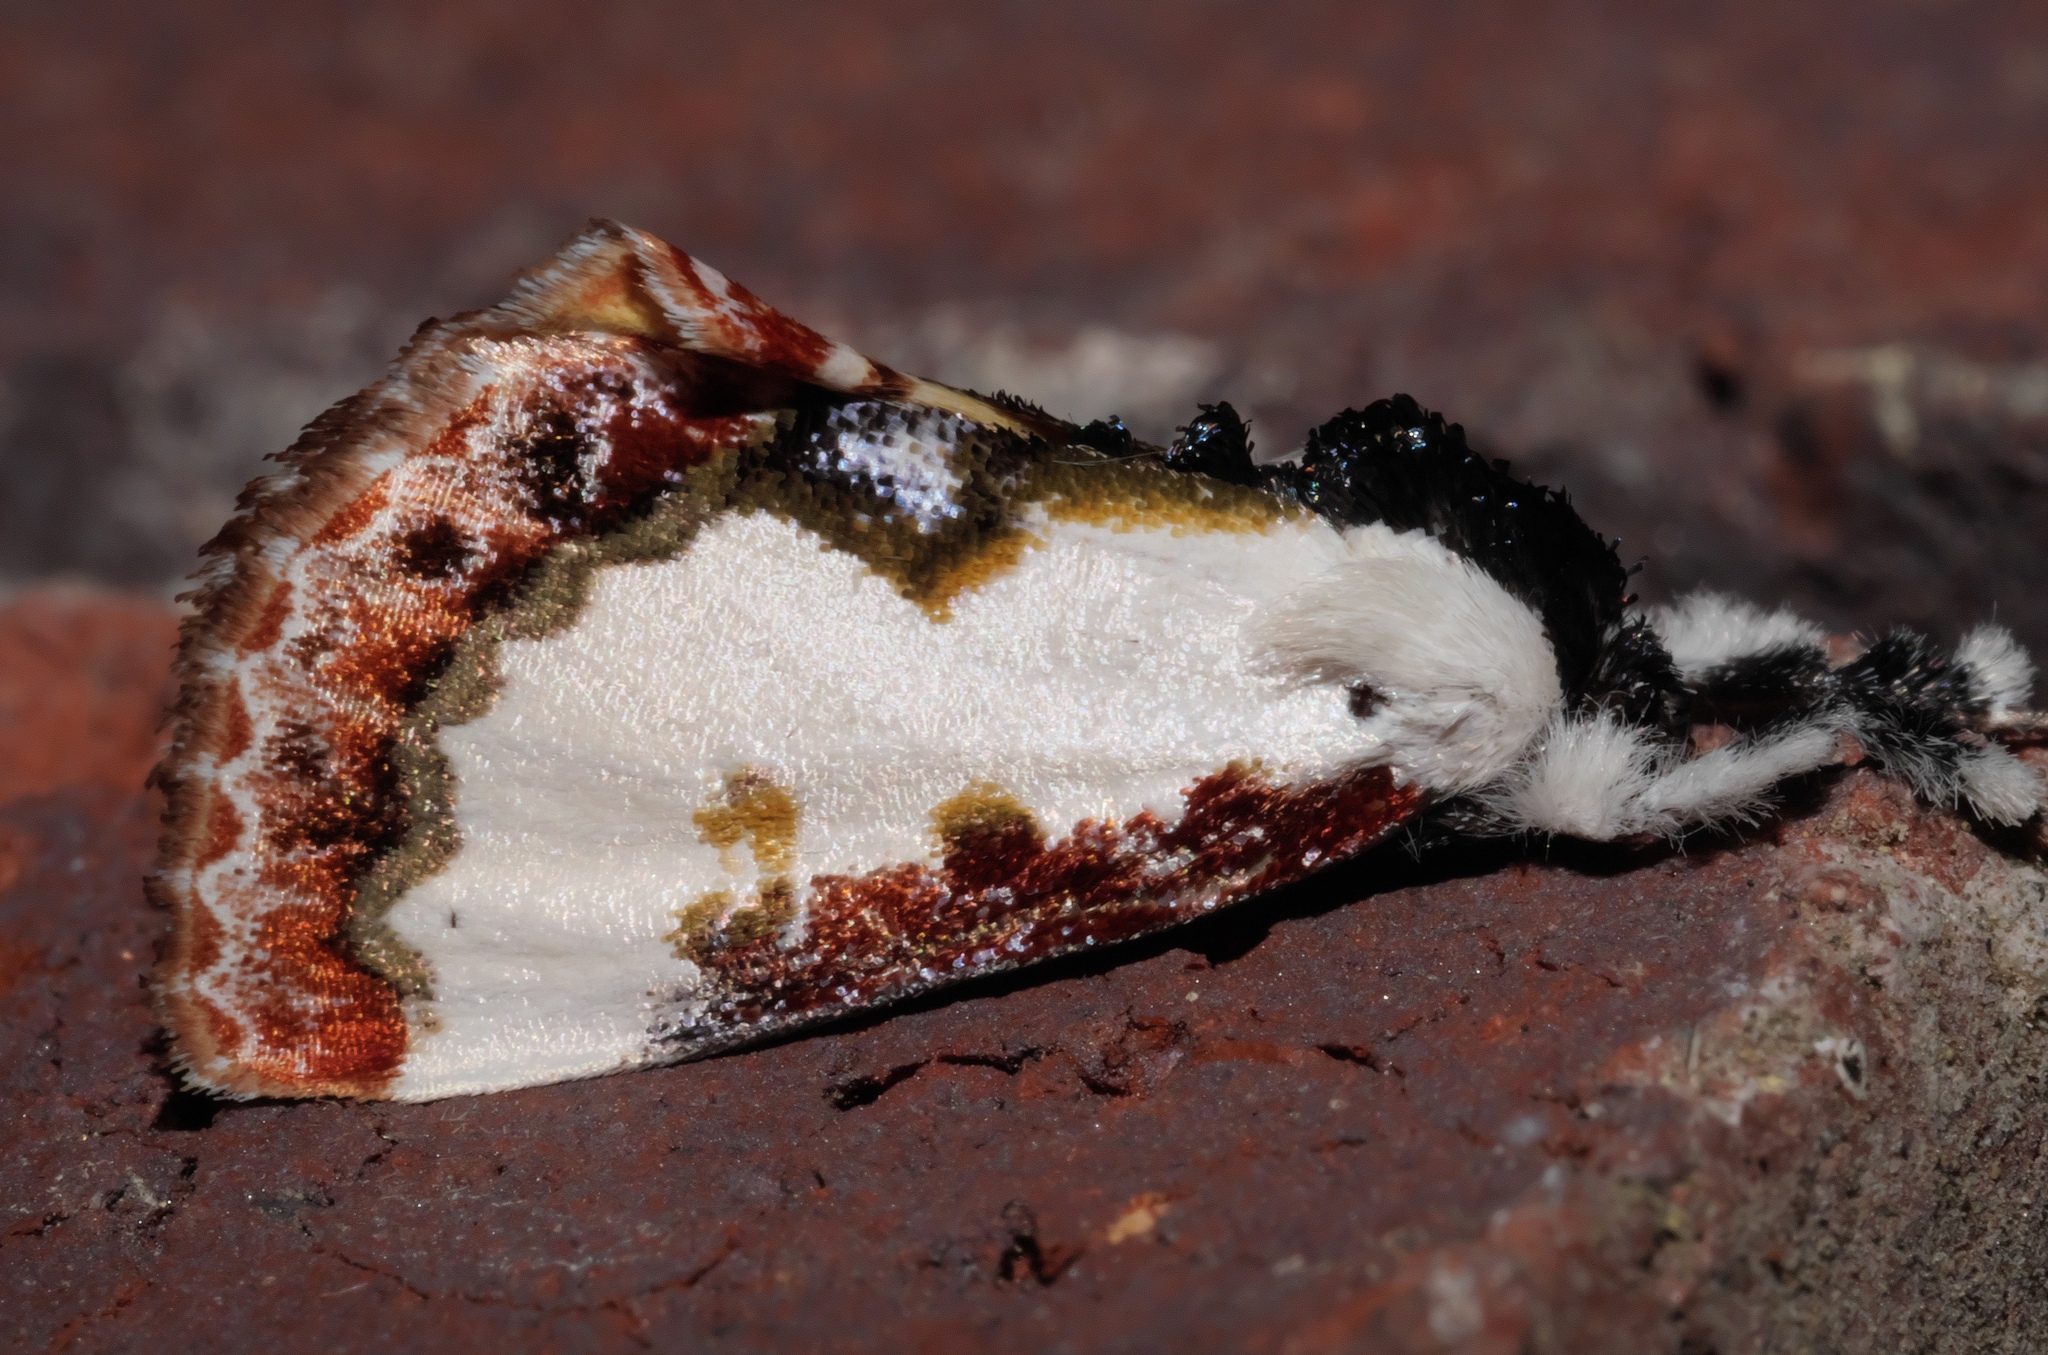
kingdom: Animalia
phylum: Arthropoda
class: Insecta
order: Lepidoptera
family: Noctuidae
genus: Eudryas
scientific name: Eudryas unio
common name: Pearly wood-nymph
